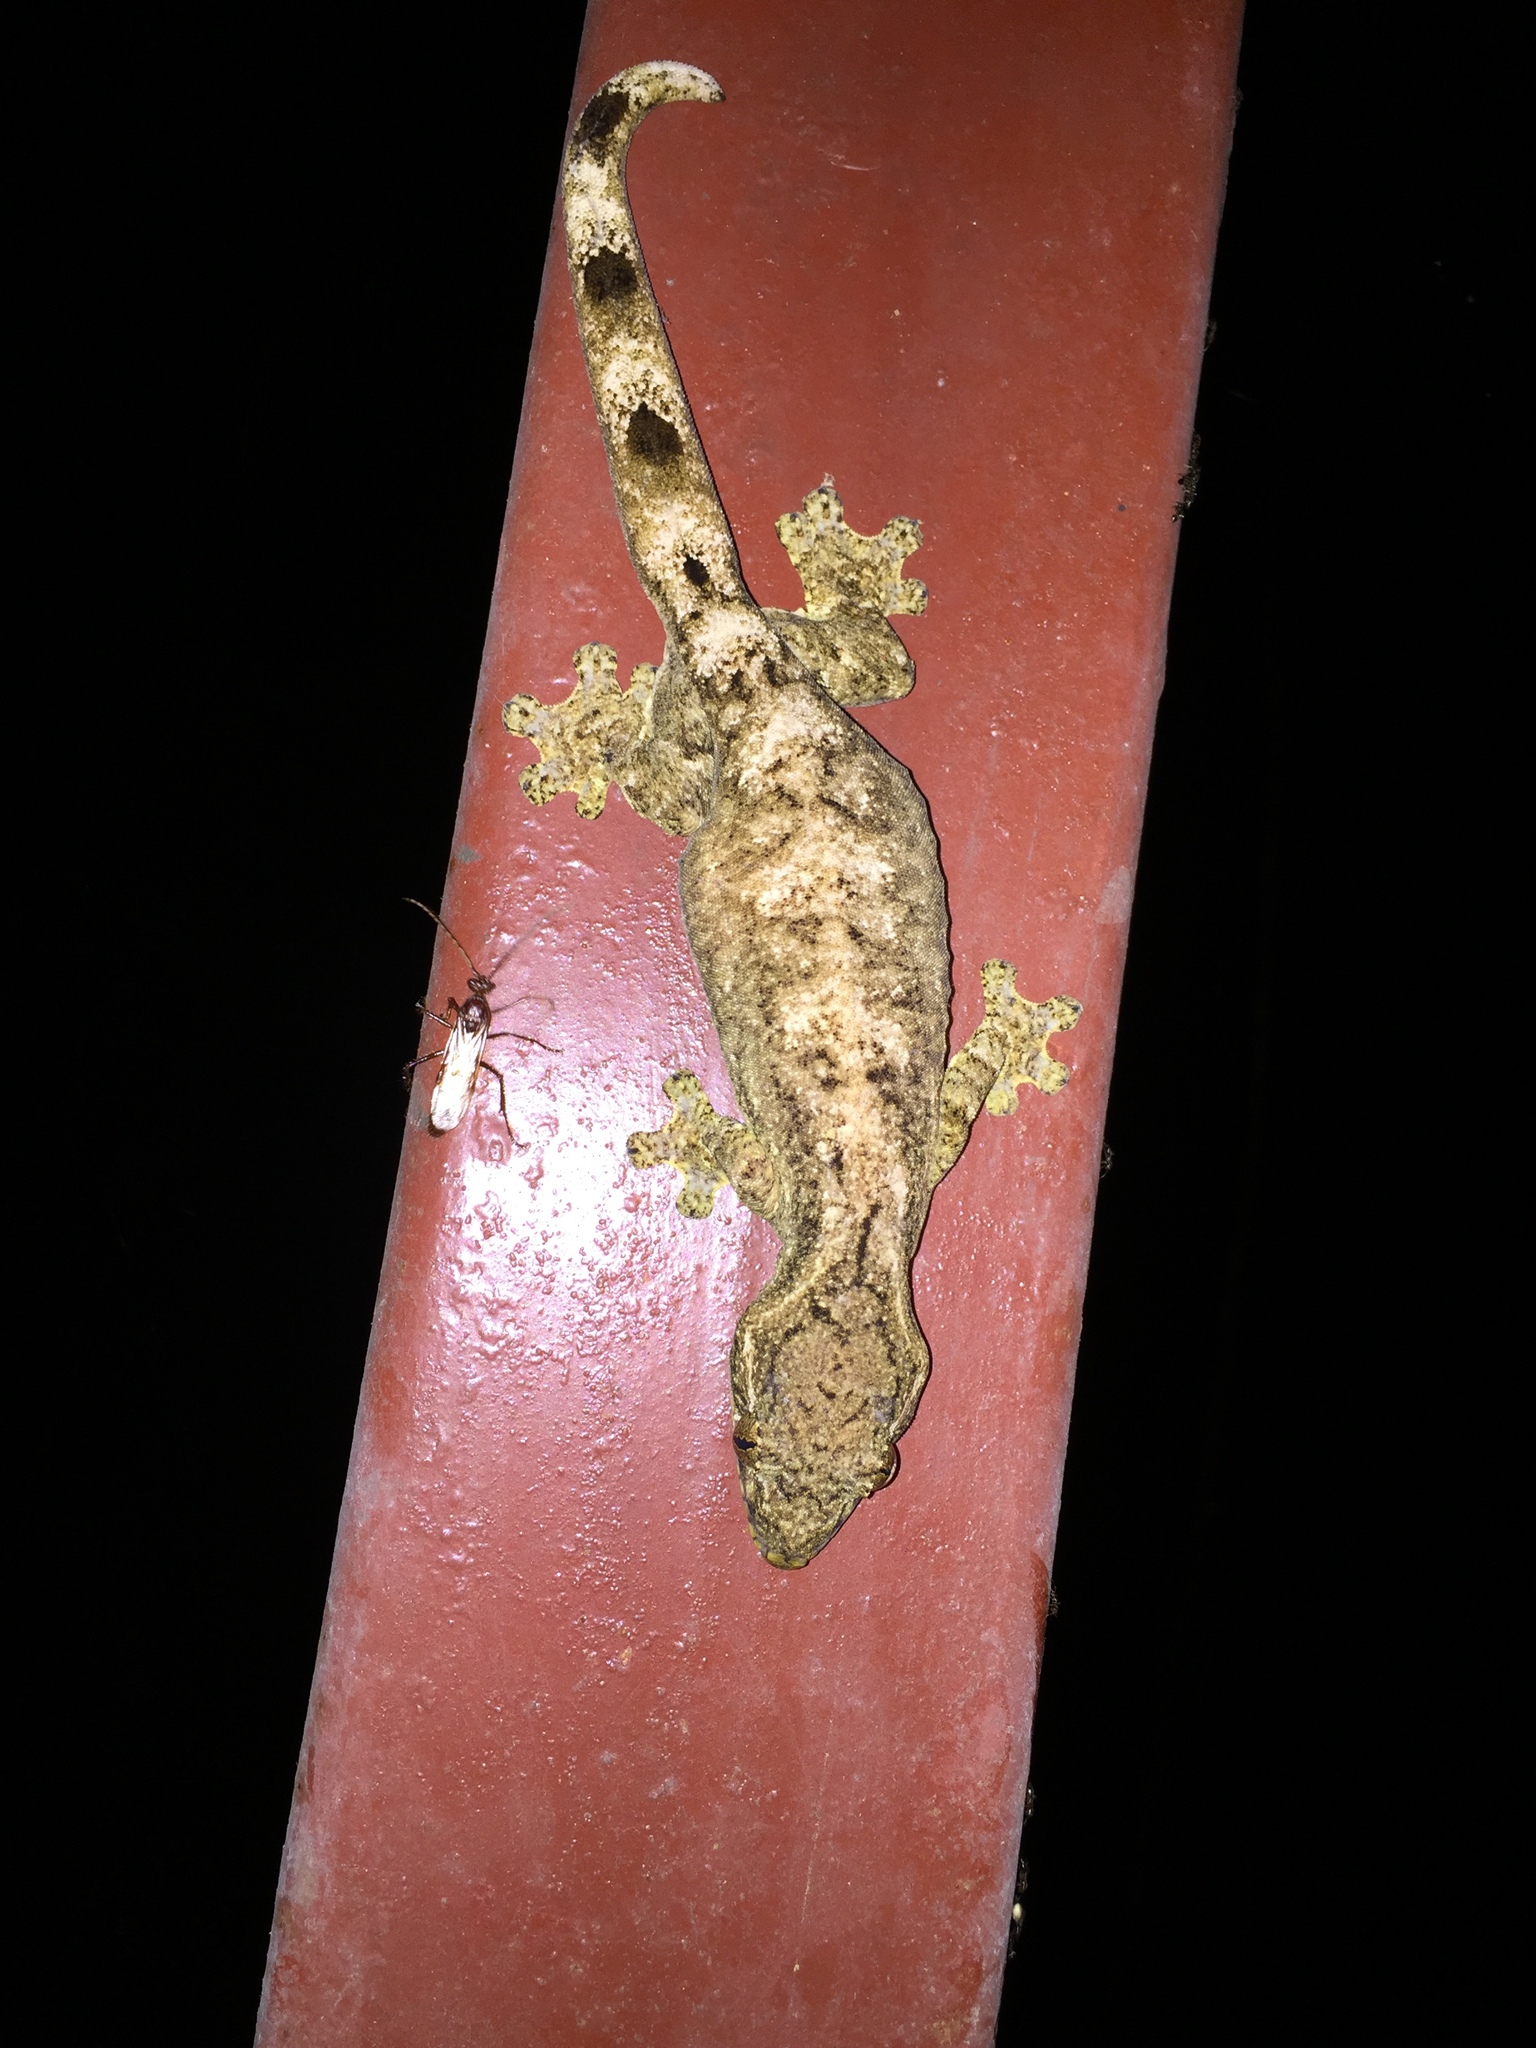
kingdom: Animalia
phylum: Chordata
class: Squamata
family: Phyllodactylidae
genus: Thecadactylus
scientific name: Thecadactylus solimoensis
